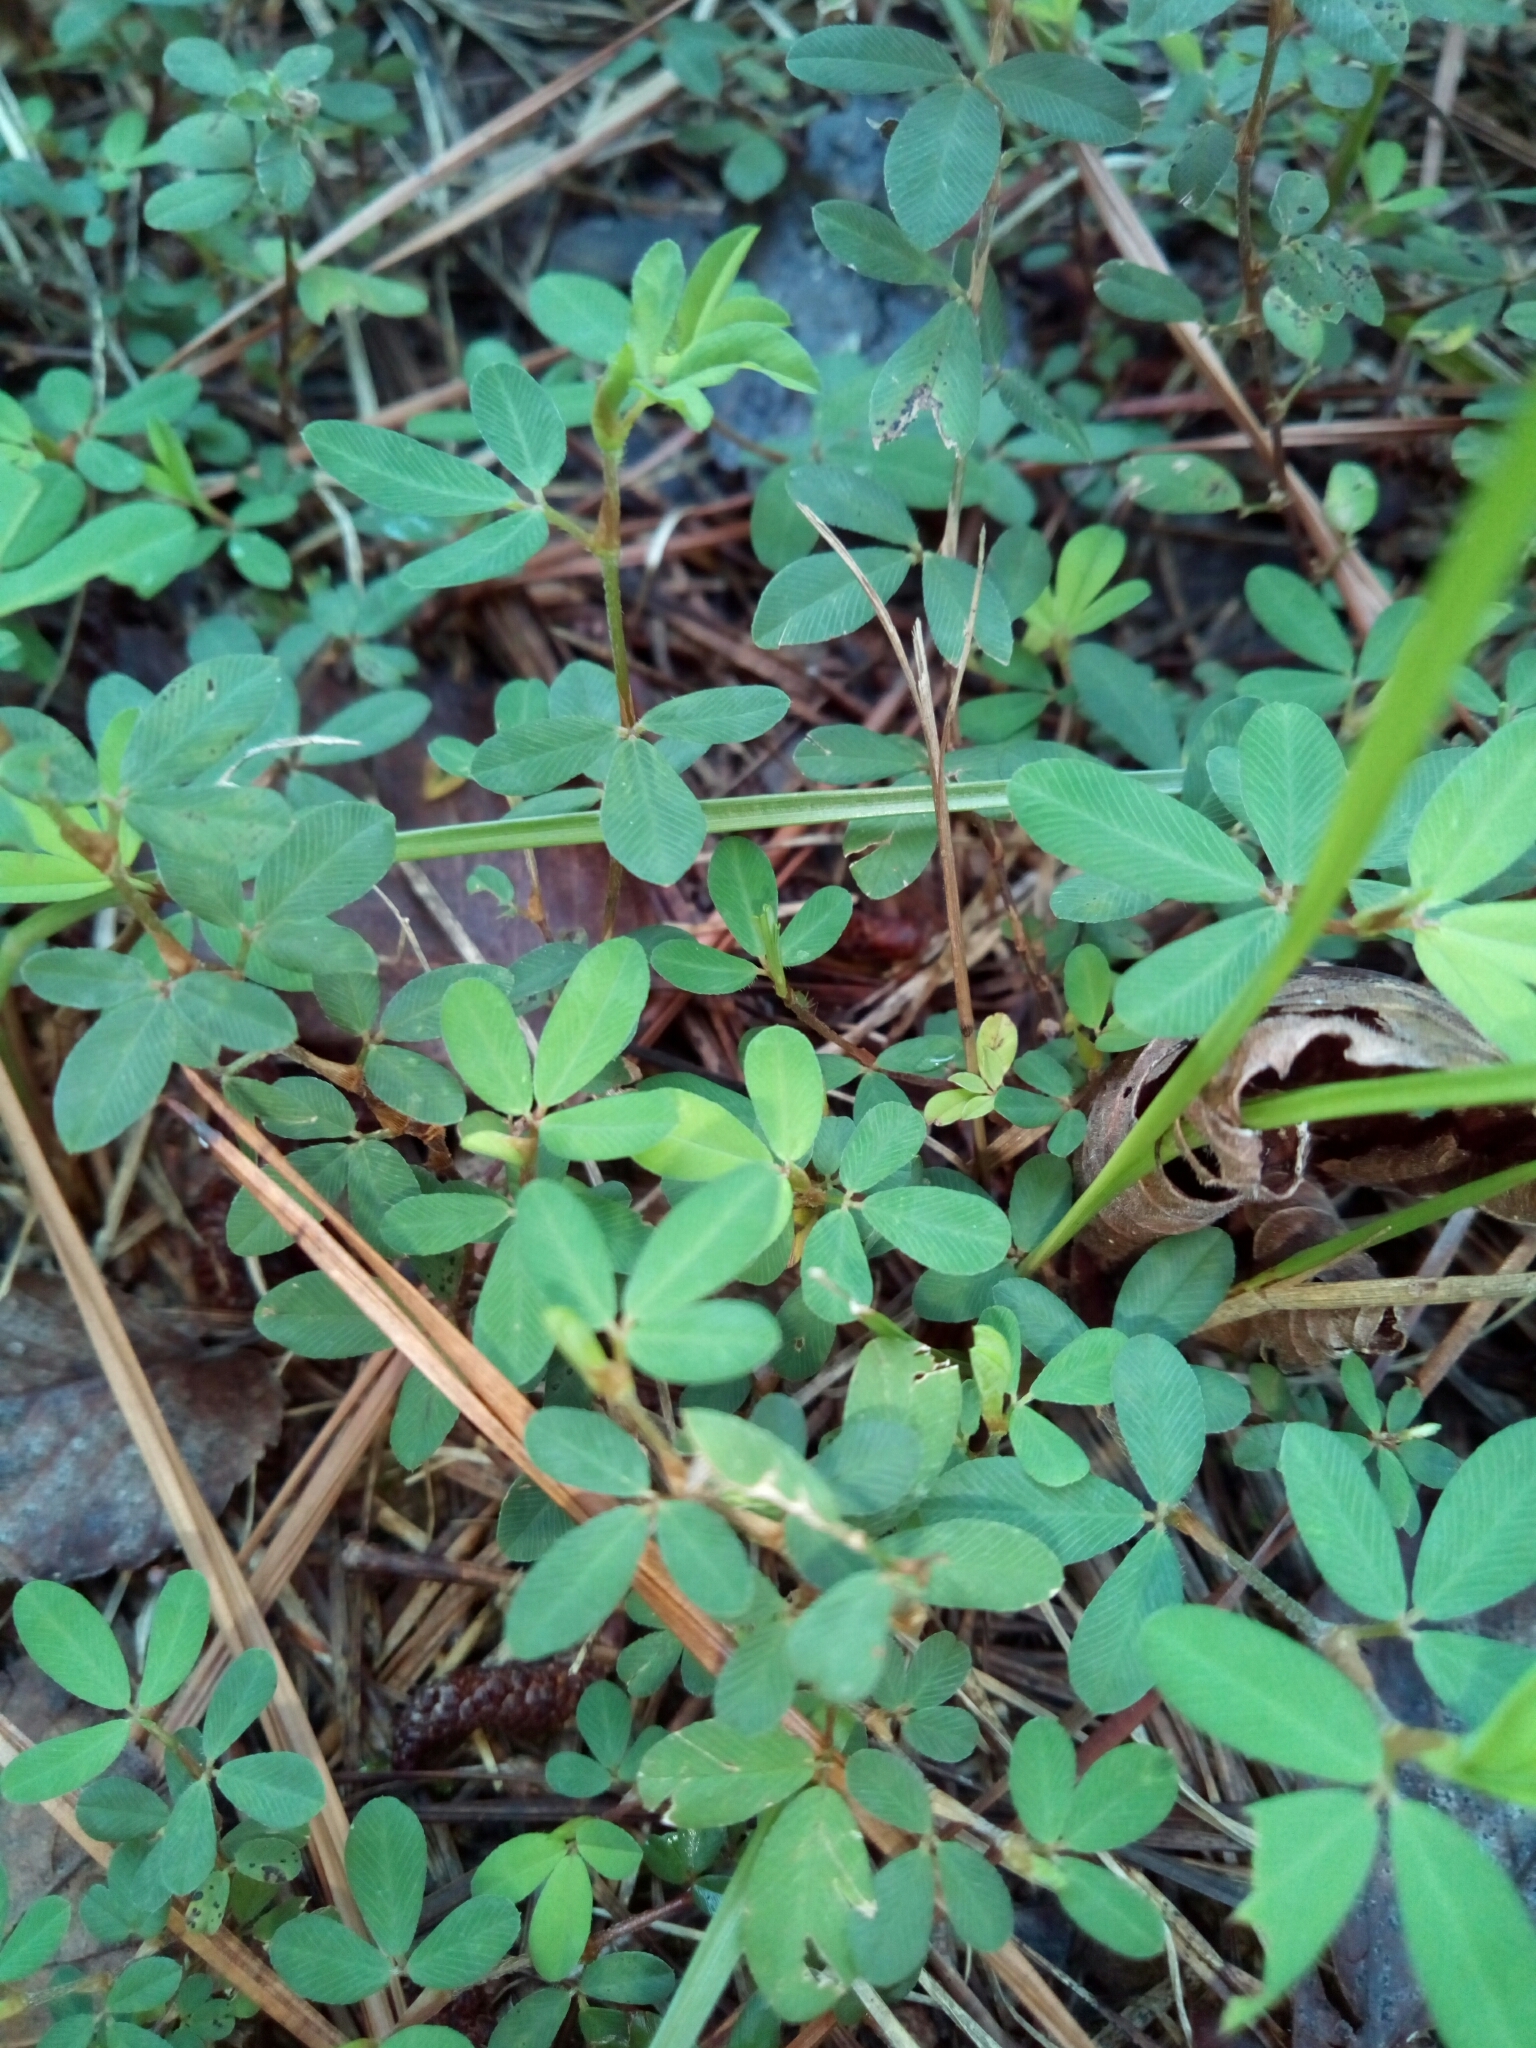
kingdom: Plantae
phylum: Tracheophyta
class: Magnoliopsida
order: Fabales
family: Fabaceae
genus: Kummerowia
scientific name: Kummerowia striata
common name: Japanese clover
